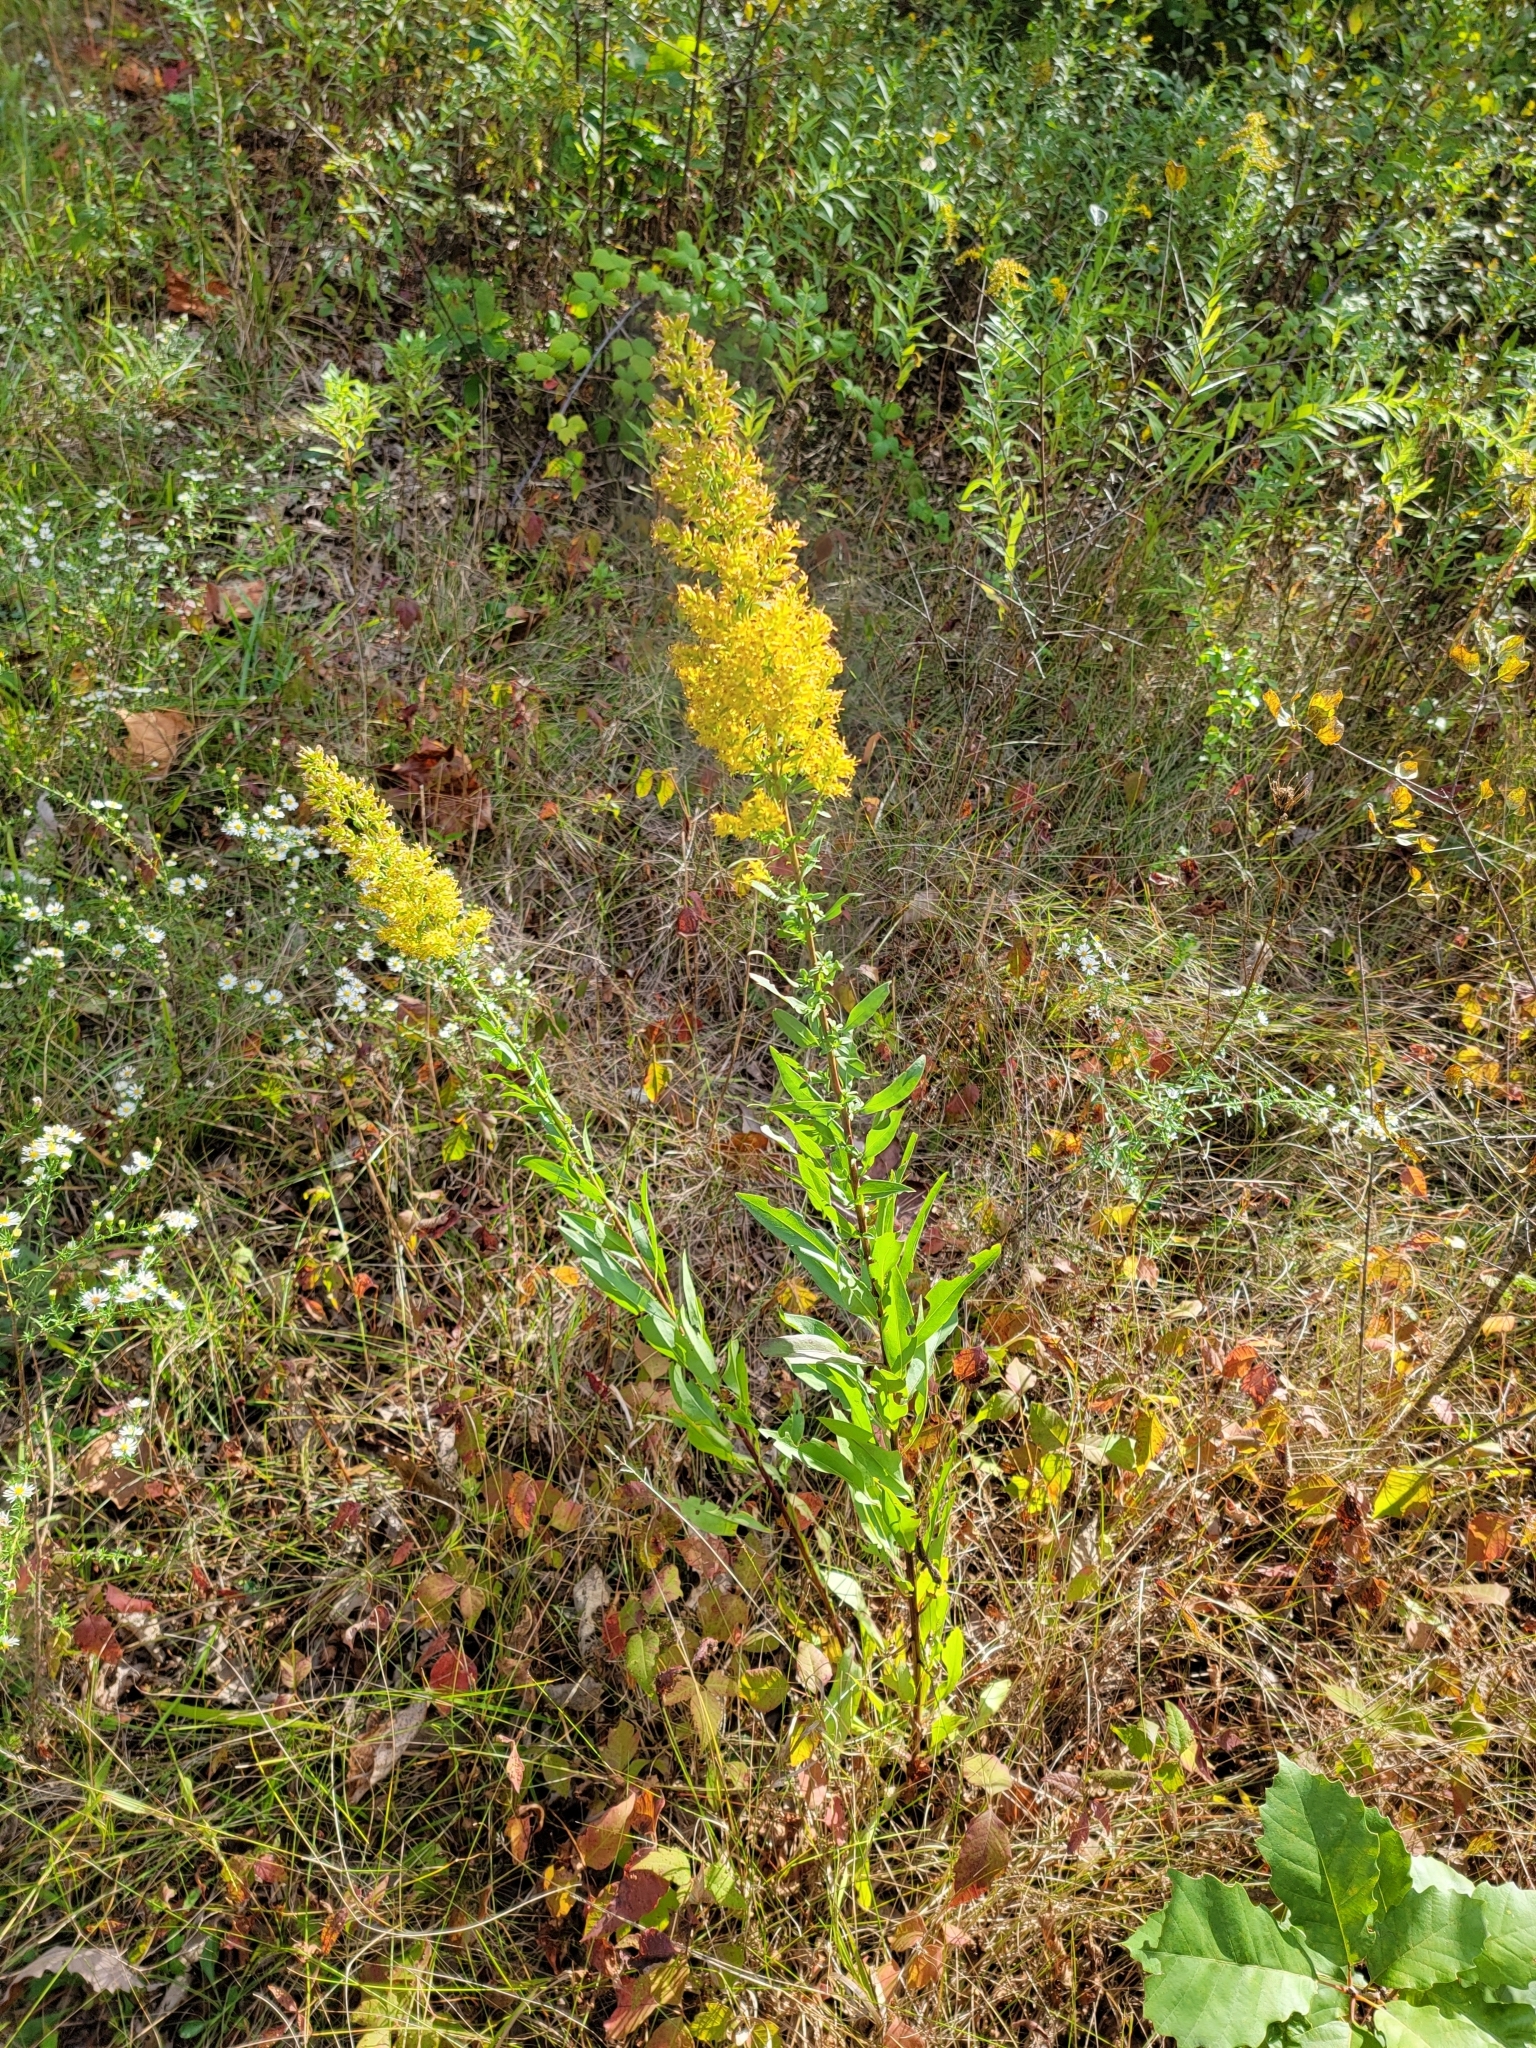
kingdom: Plantae
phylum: Tracheophyta
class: Magnoliopsida
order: Asterales
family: Asteraceae
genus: Solidago
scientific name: Solidago rigidiuscula
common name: Stiff-leaved showy goldenrod
